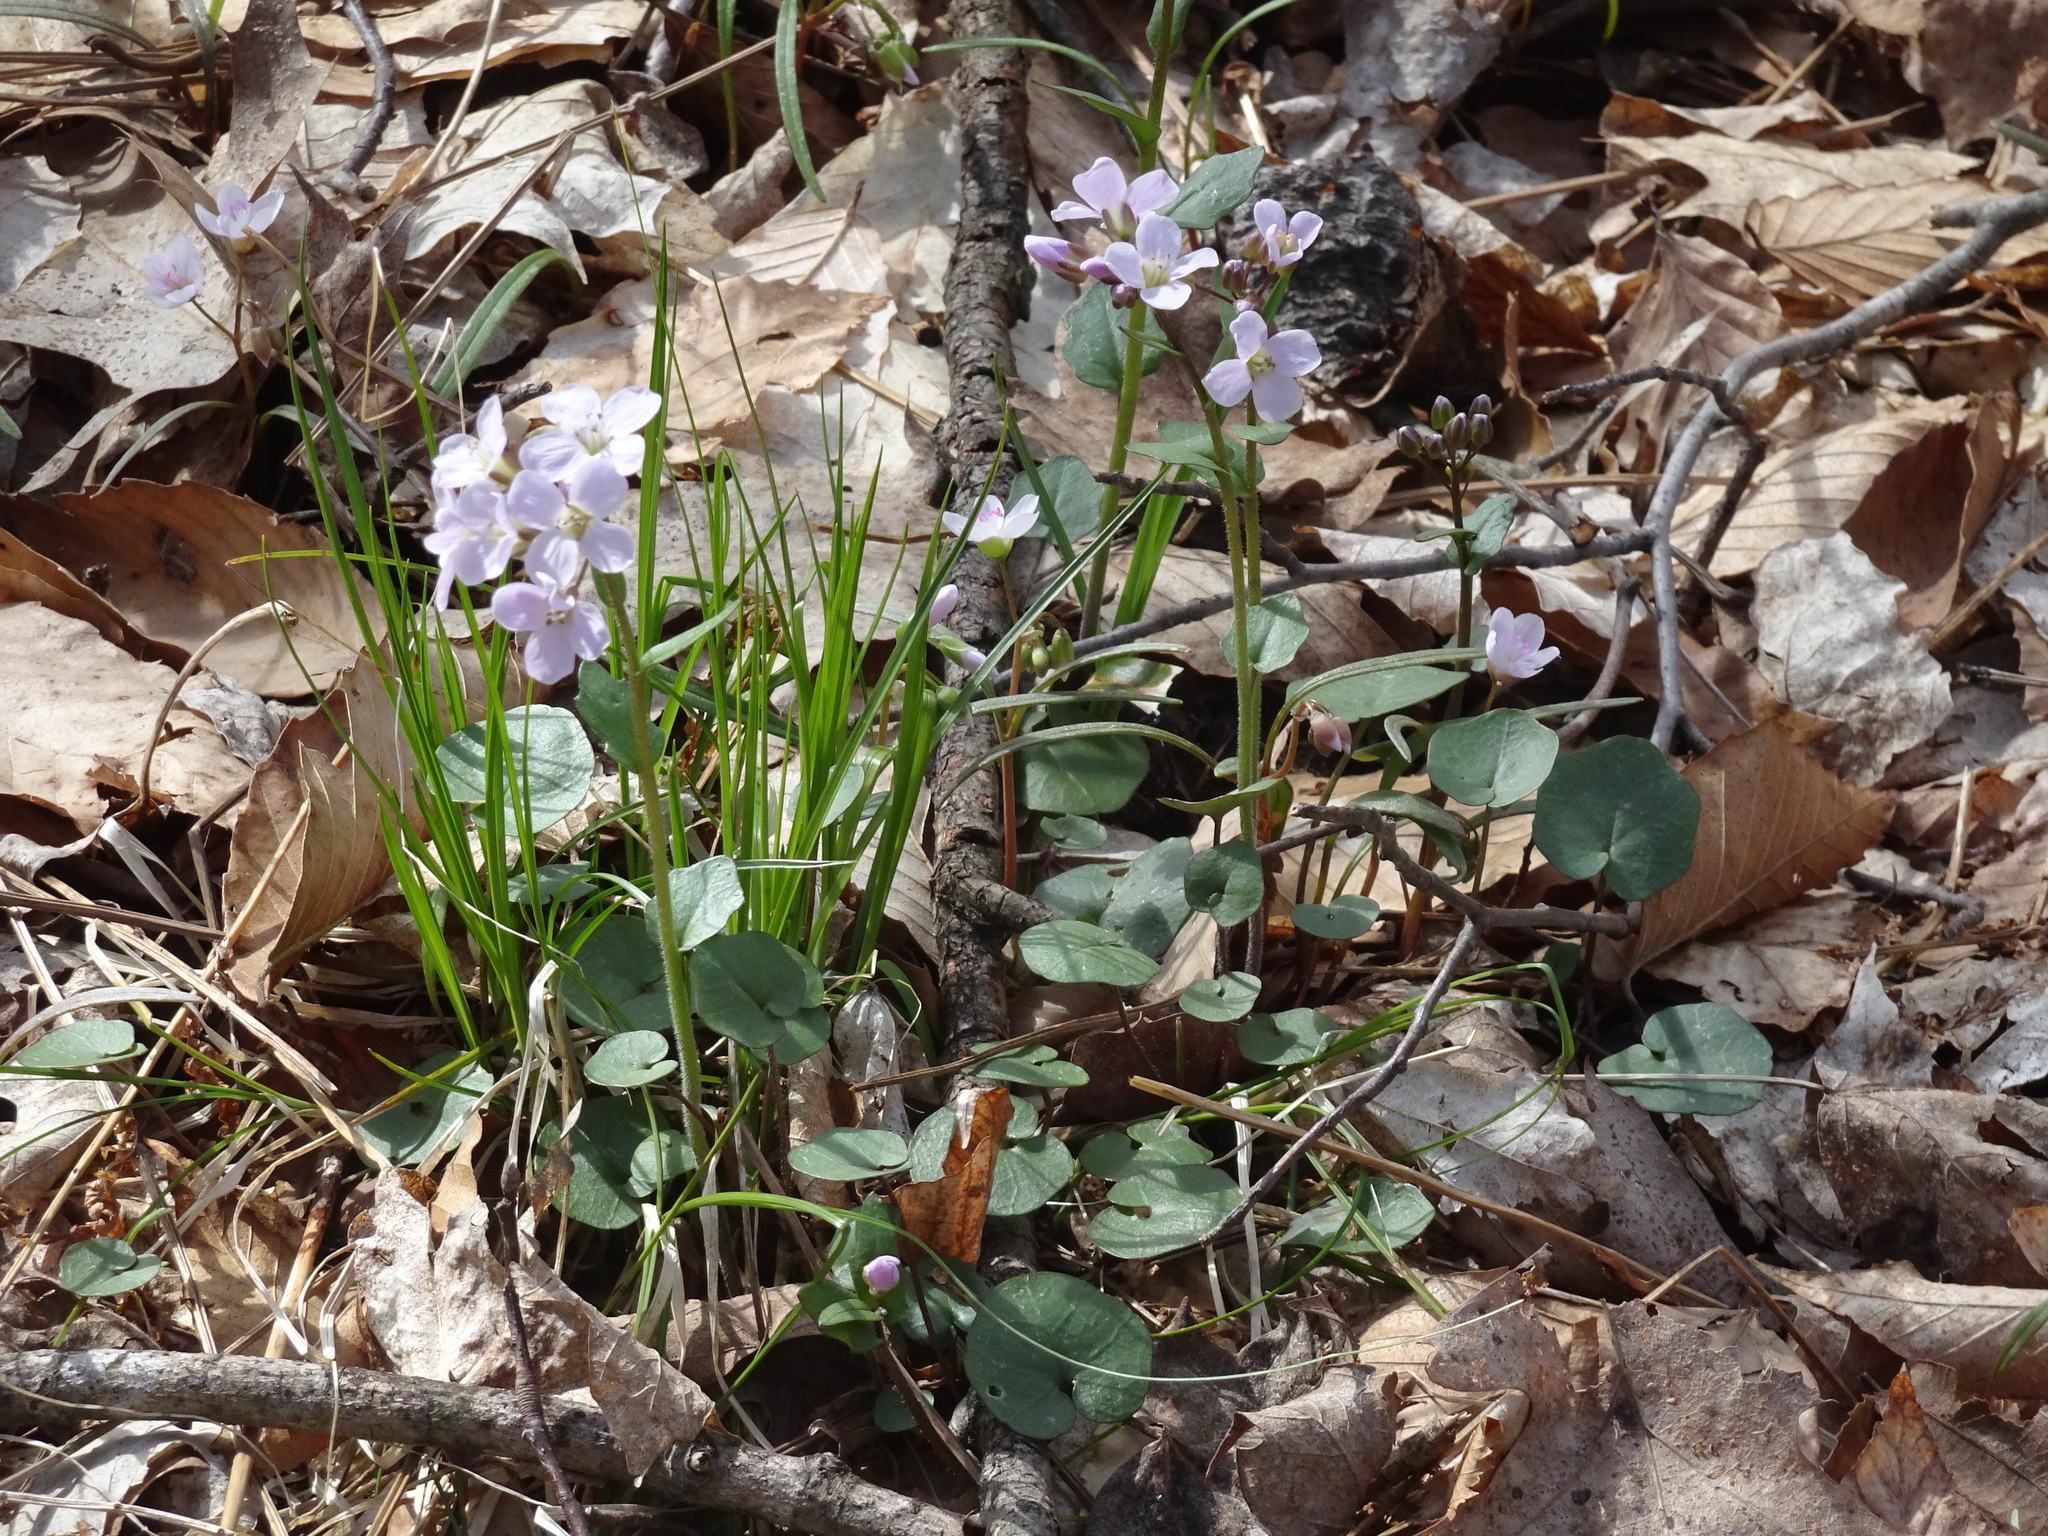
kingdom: Plantae
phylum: Tracheophyta
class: Magnoliopsida
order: Brassicales
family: Brassicaceae
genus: Cardamine
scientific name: Cardamine douglassii
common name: Purple cress
